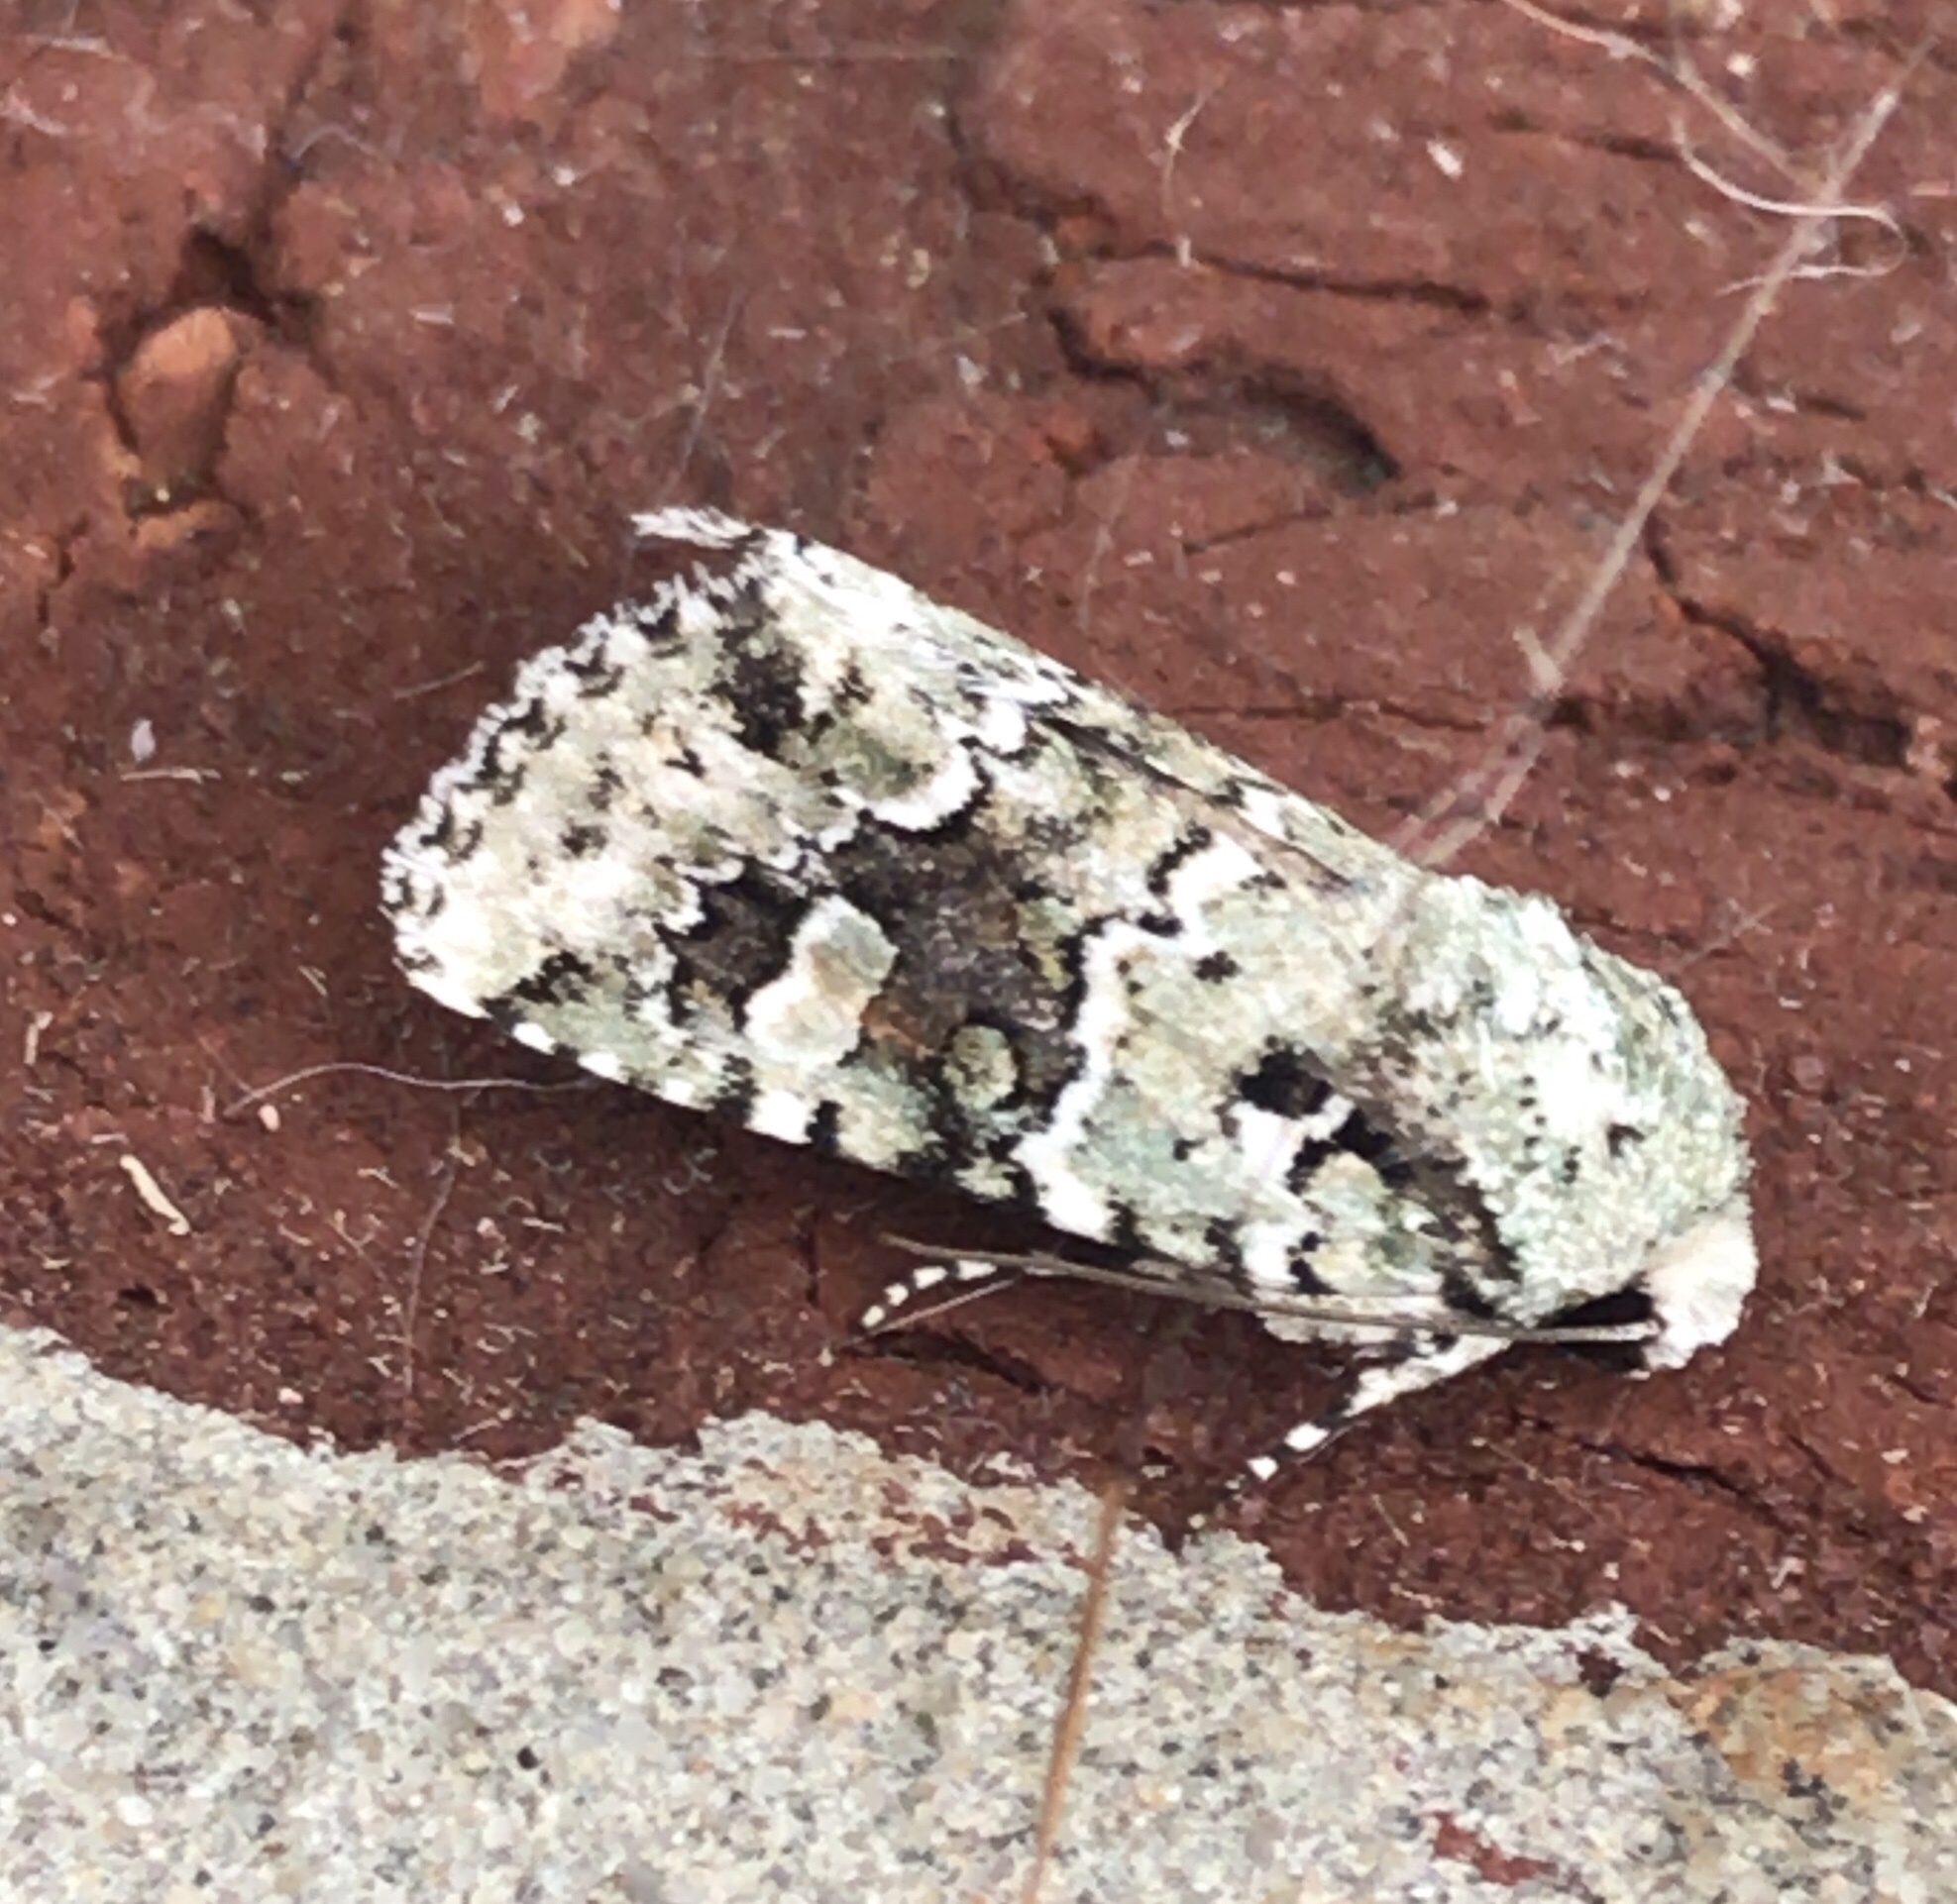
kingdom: Animalia
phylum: Arthropoda
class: Insecta
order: Lepidoptera
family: Noctuidae
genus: Lacinipolia
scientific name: Lacinipolia laudabilis
